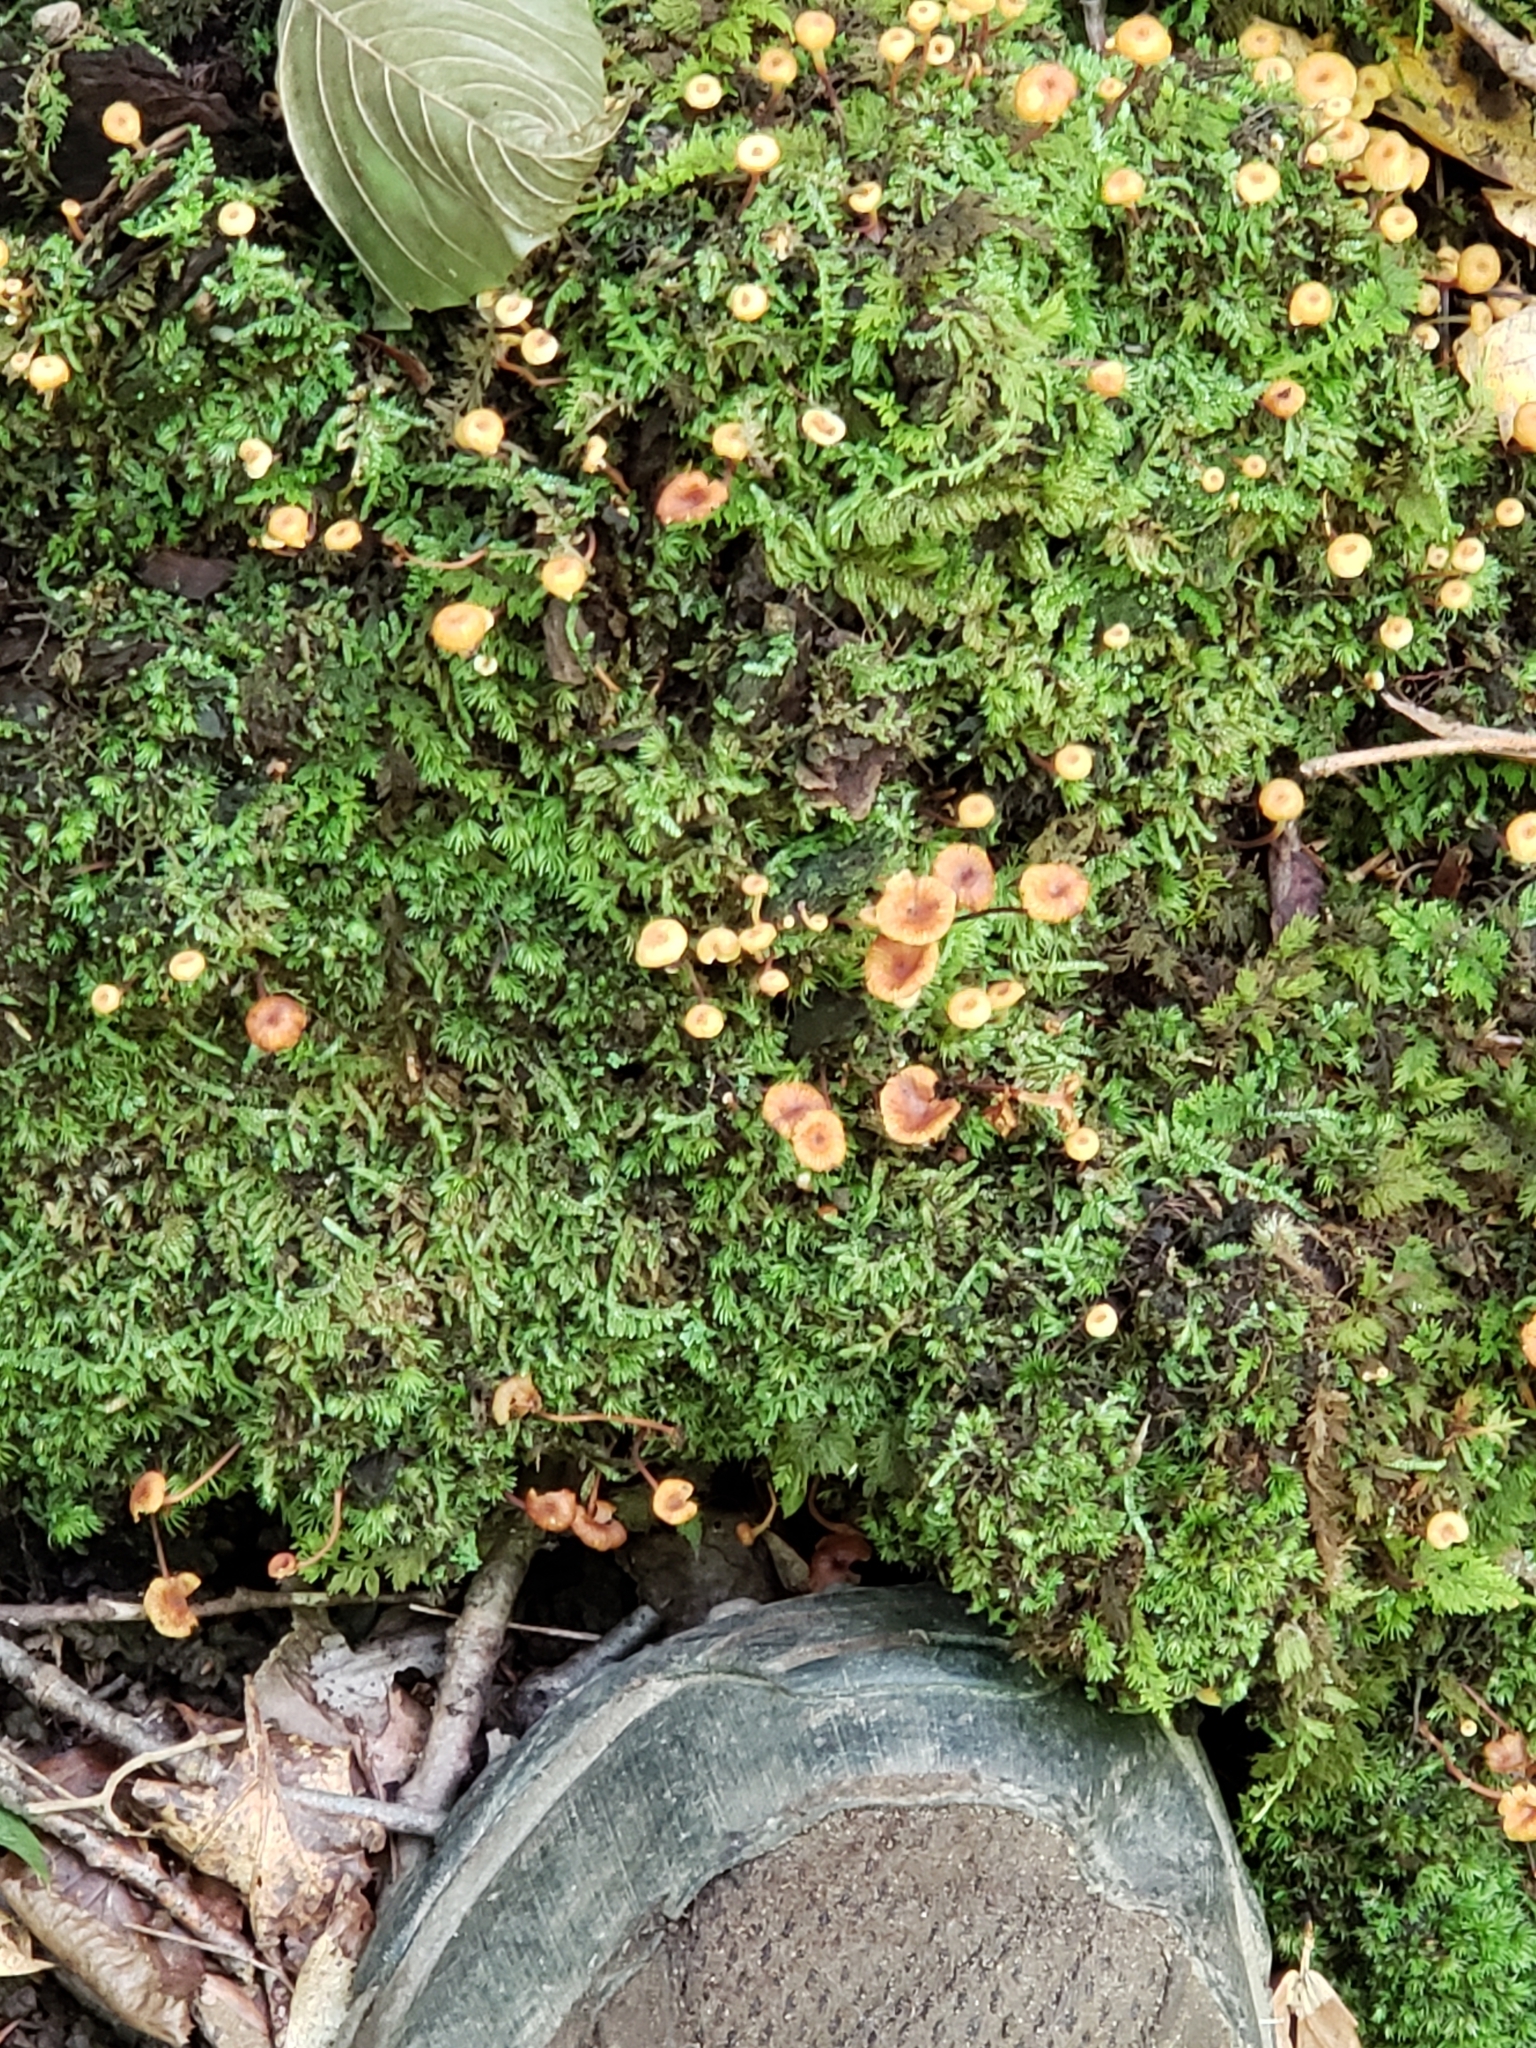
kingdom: Fungi
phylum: Basidiomycota
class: Agaricomycetes
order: Agaricales
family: Mycenaceae
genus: Xeromphalina
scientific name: Xeromphalina campanella
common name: Pinewood gingertail
